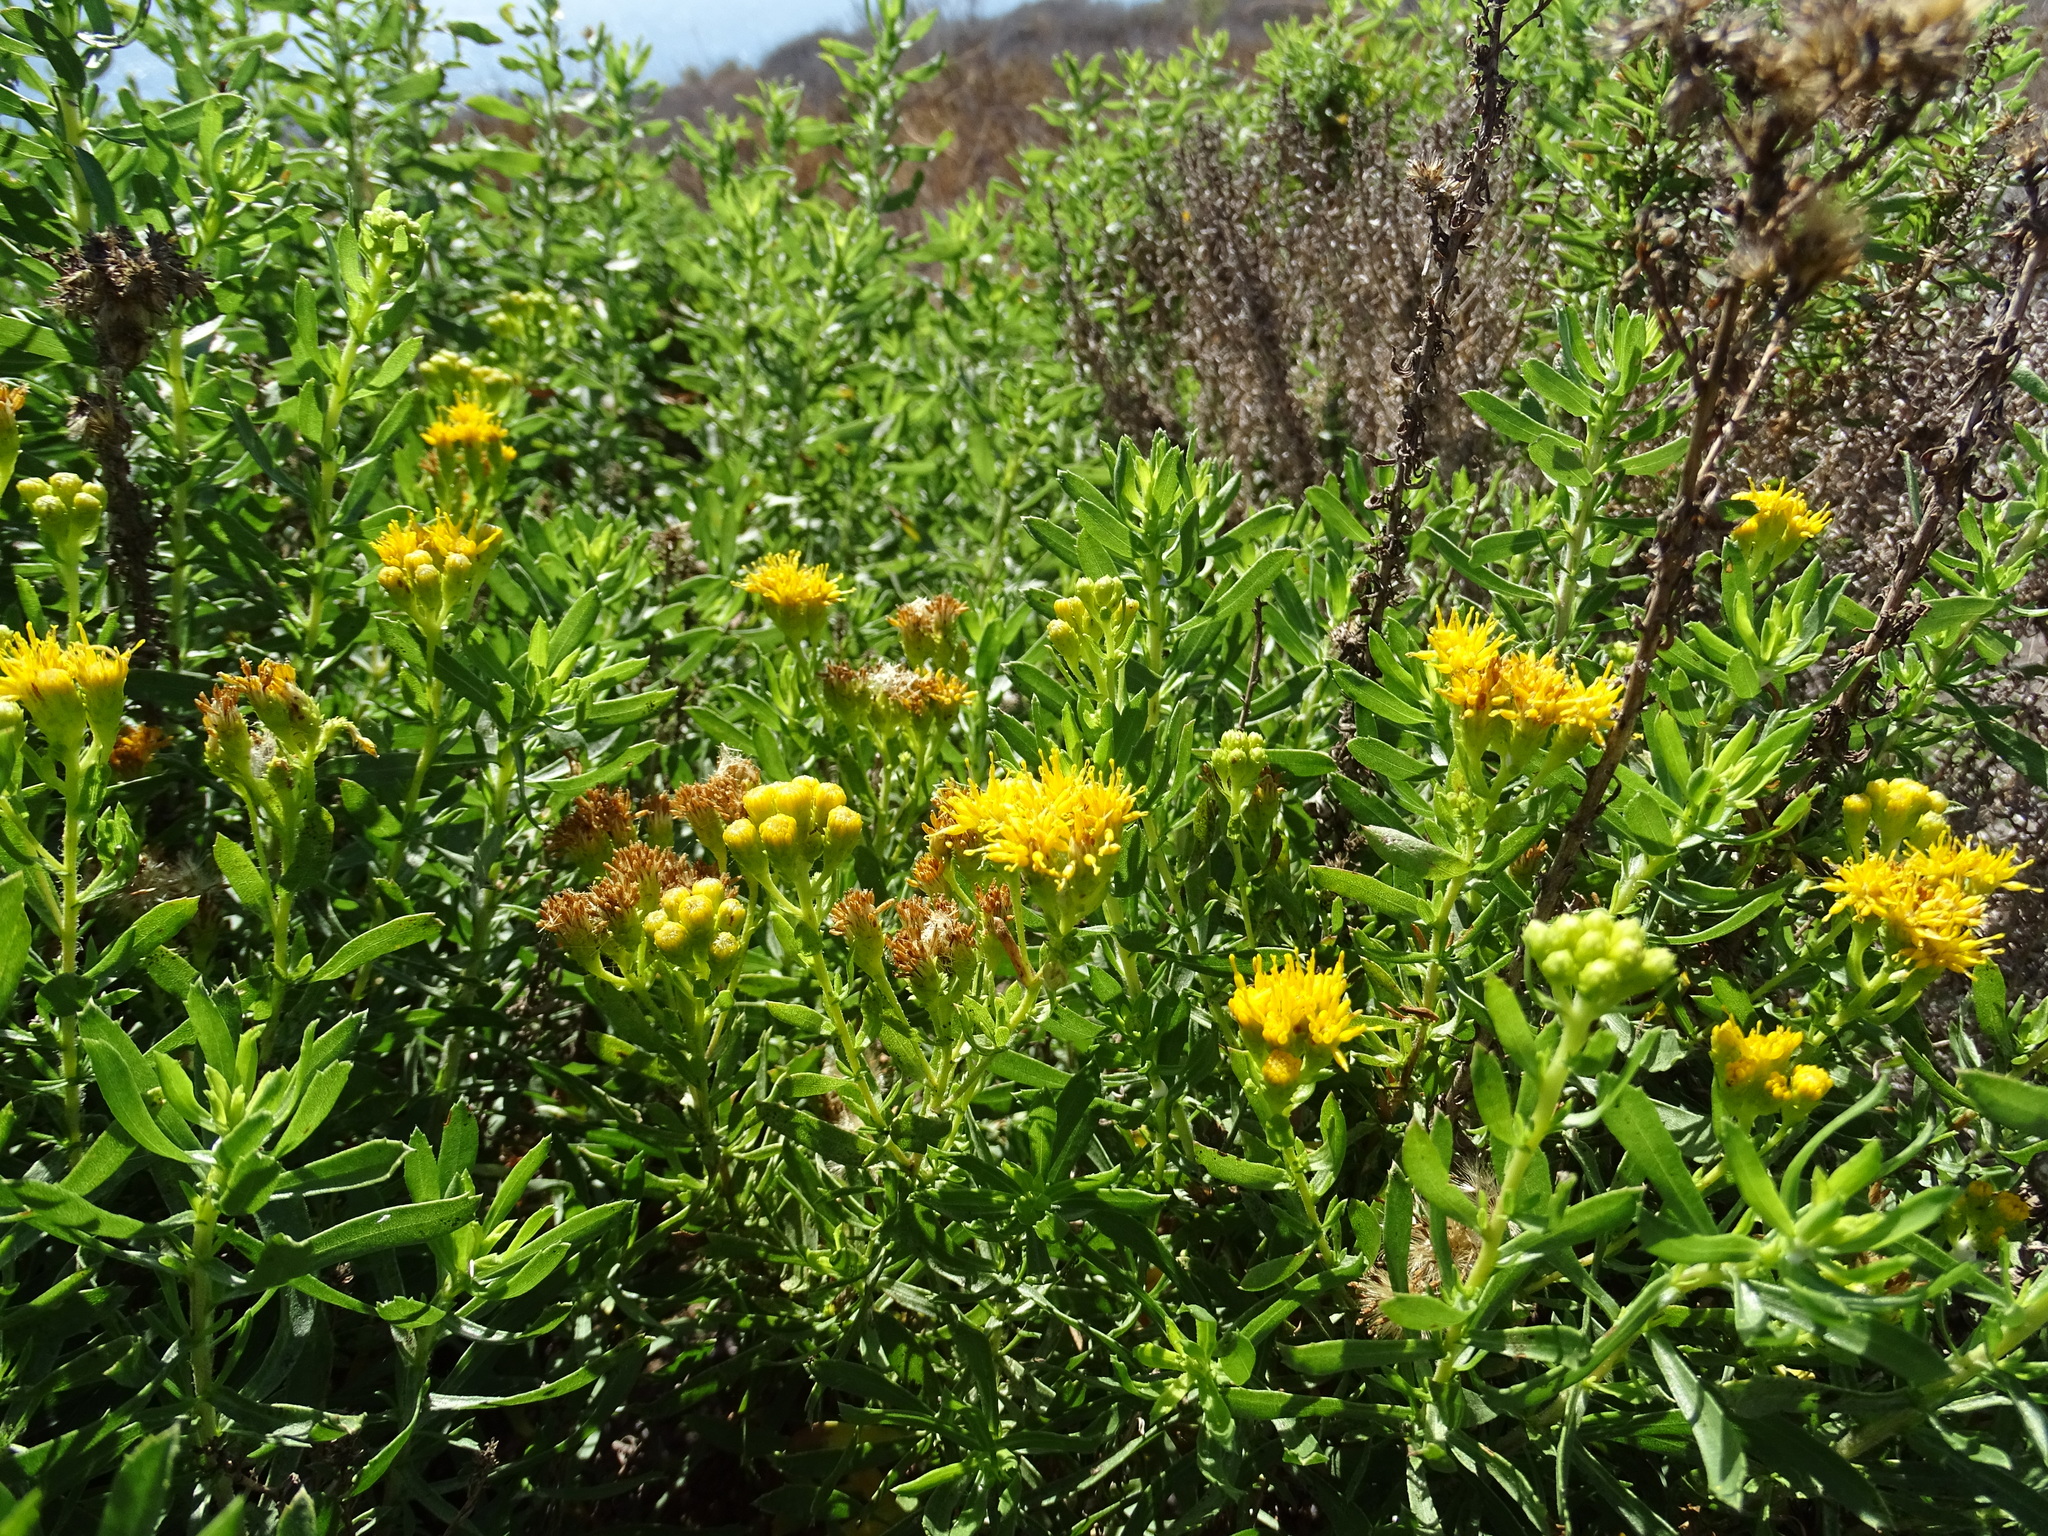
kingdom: Plantae
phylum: Tracheophyta
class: Magnoliopsida
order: Asterales
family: Asteraceae
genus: Isocoma
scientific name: Isocoma menziesii
